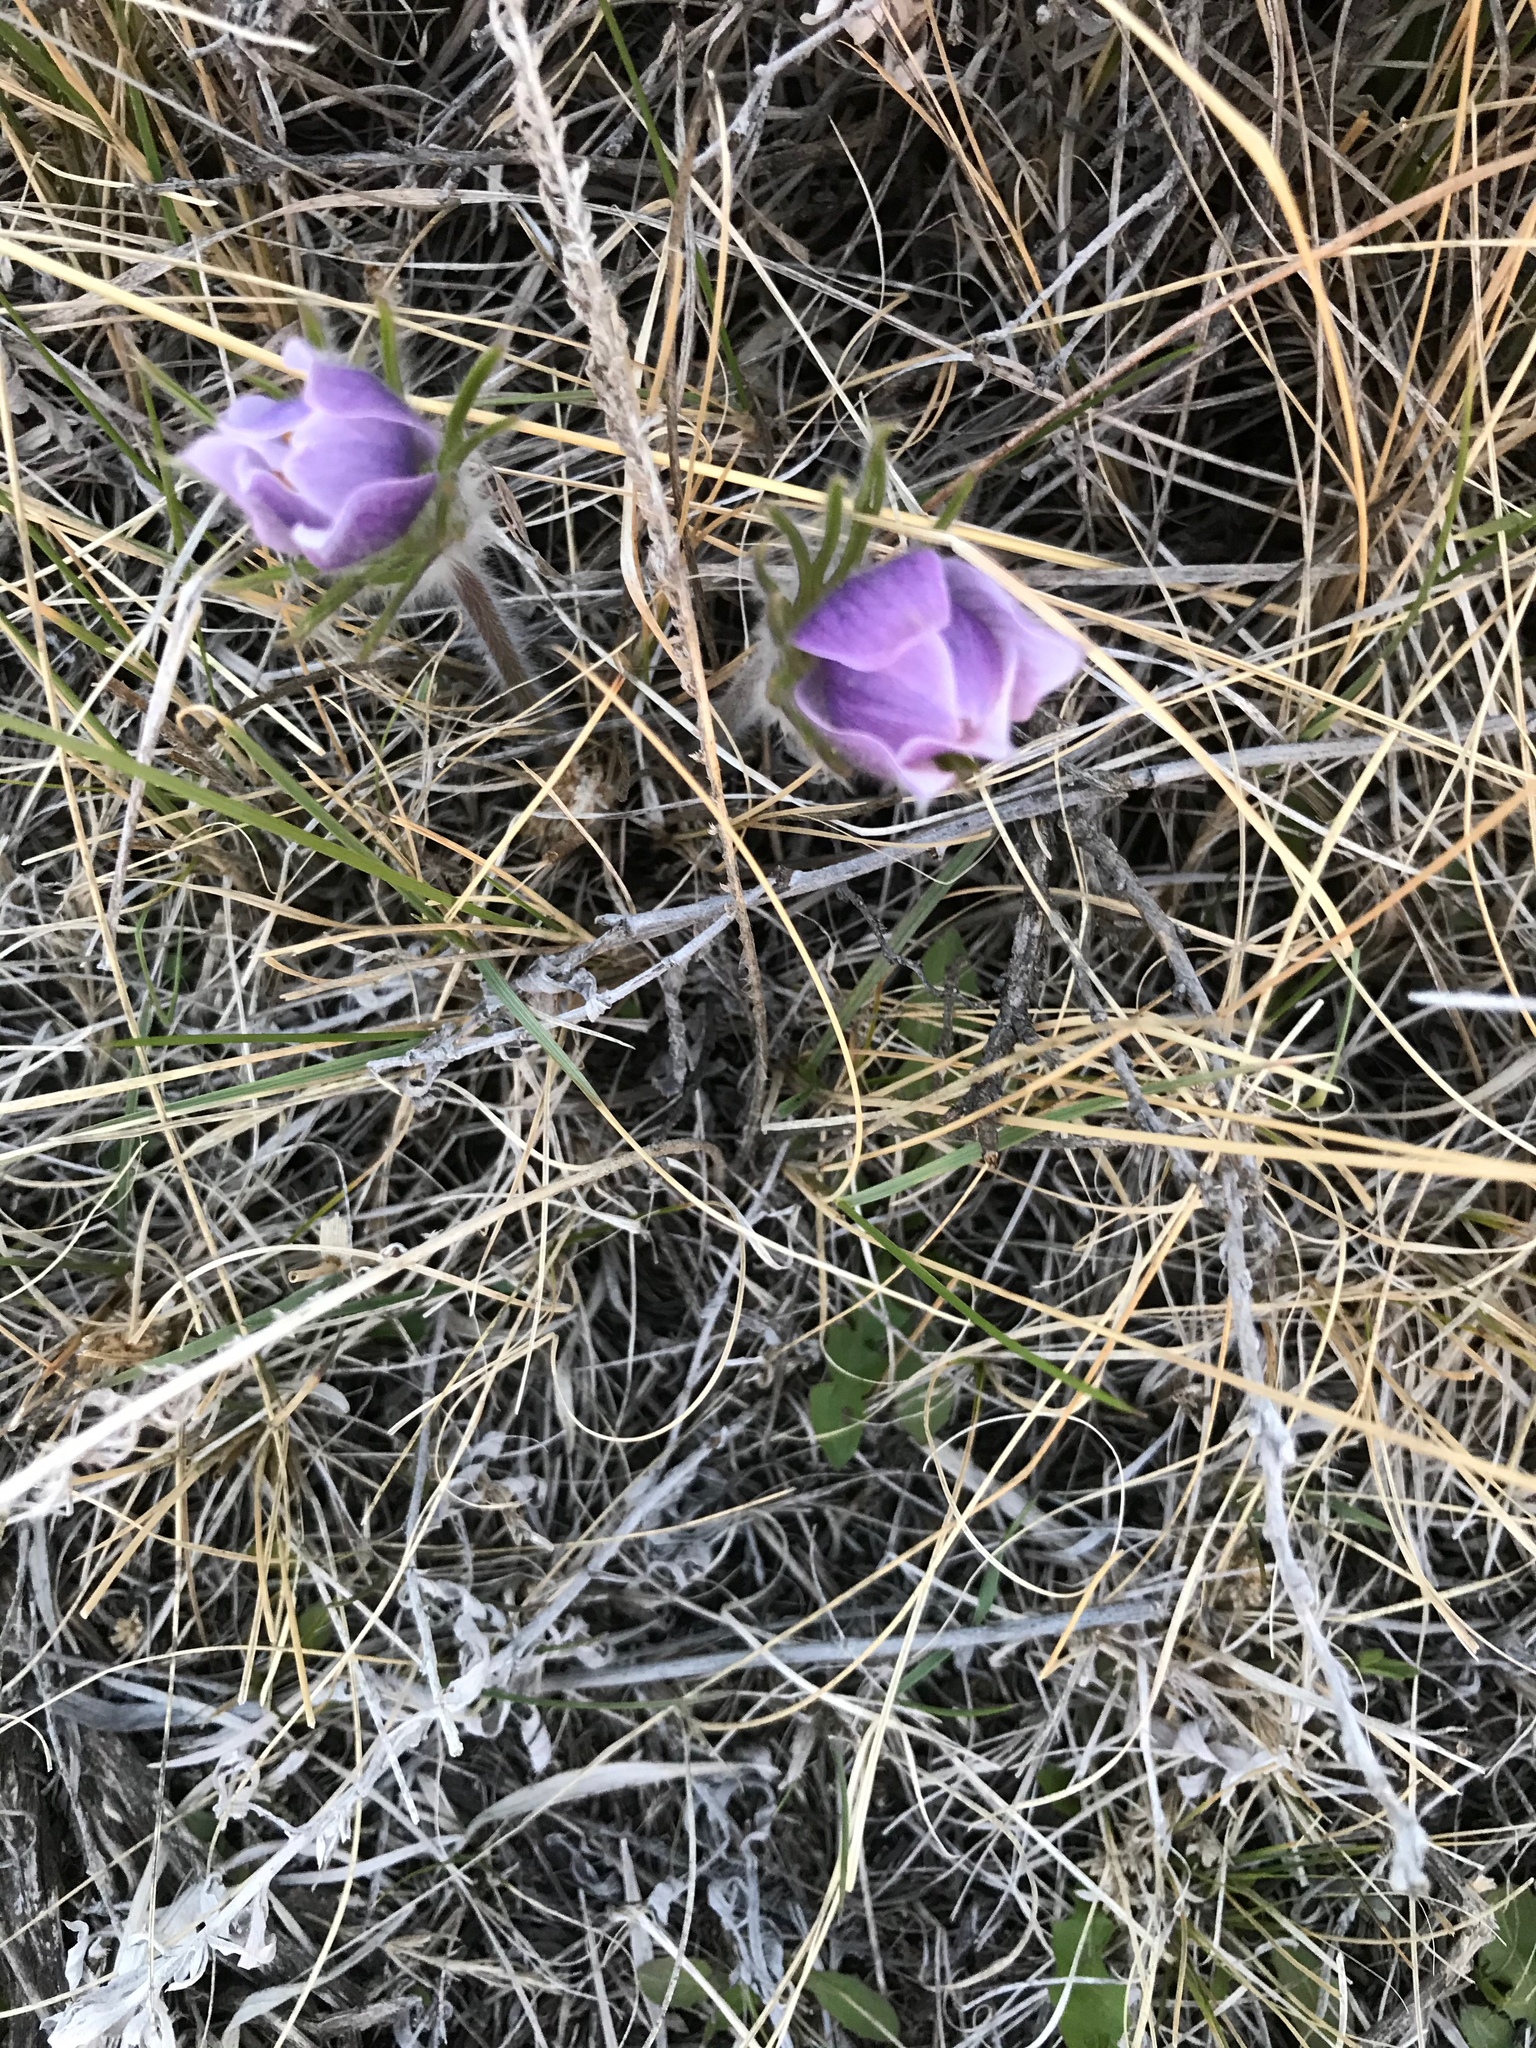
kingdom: Plantae
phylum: Tracheophyta
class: Magnoliopsida
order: Ranunculales
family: Ranunculaceae
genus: Pulsatilla
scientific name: Pulsatilla nuttalliana
